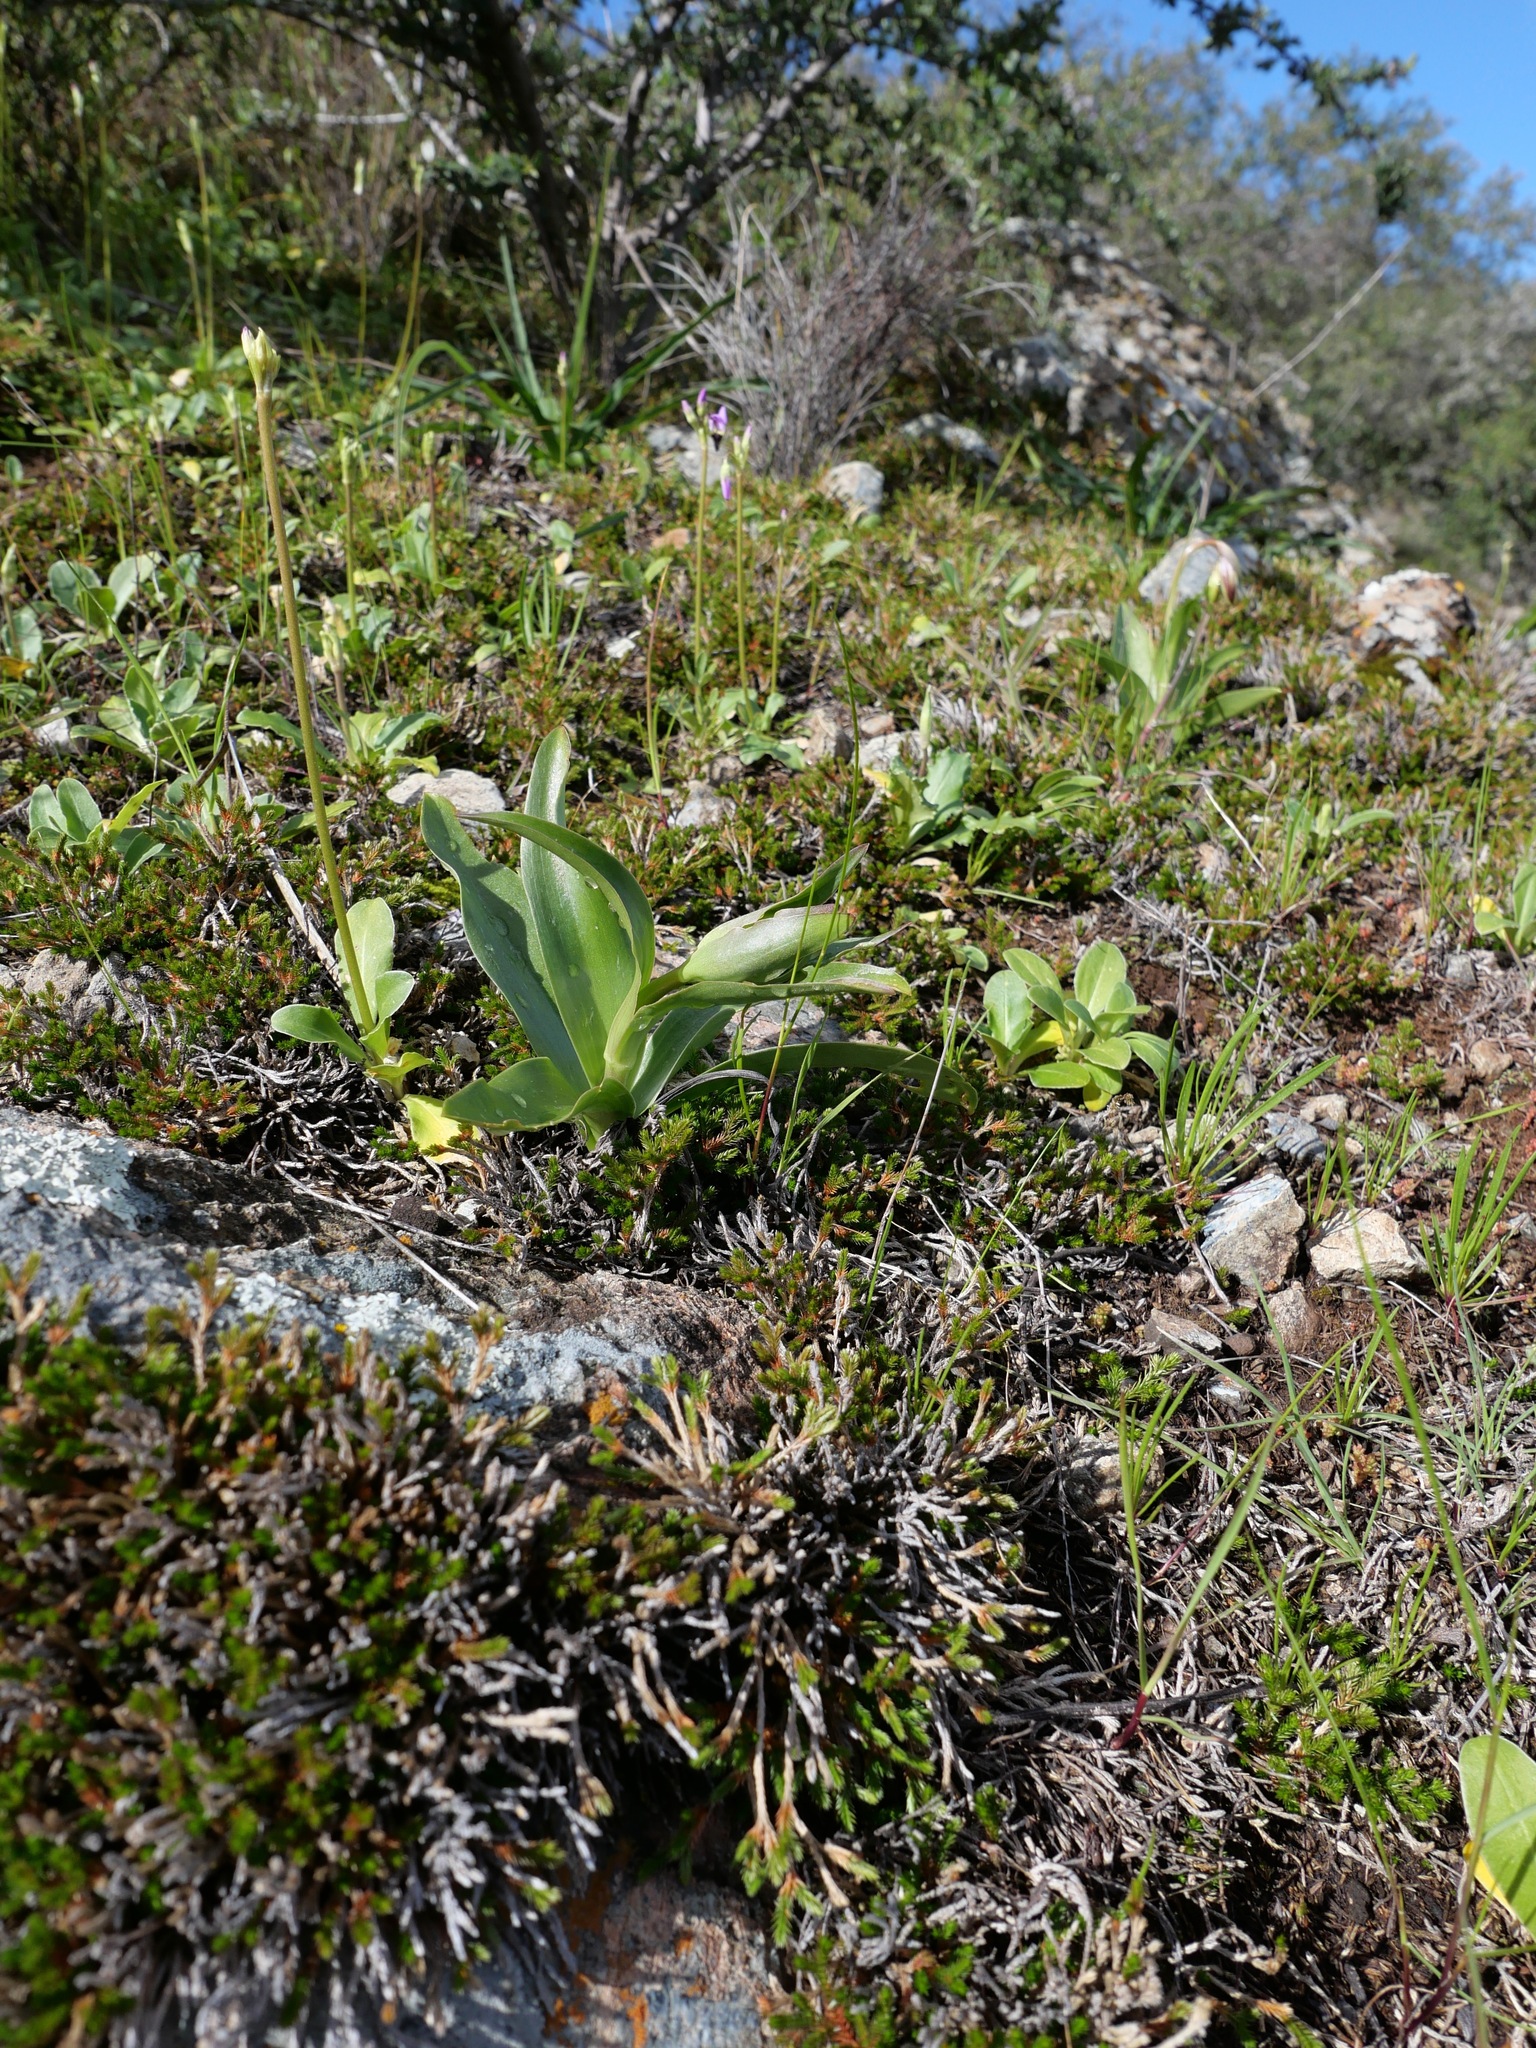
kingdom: Plantae
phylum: Tracheophyta
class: Liliopsida
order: Liliales
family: Liliaceae
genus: Fritillaria
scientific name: Fritillaria biflora
